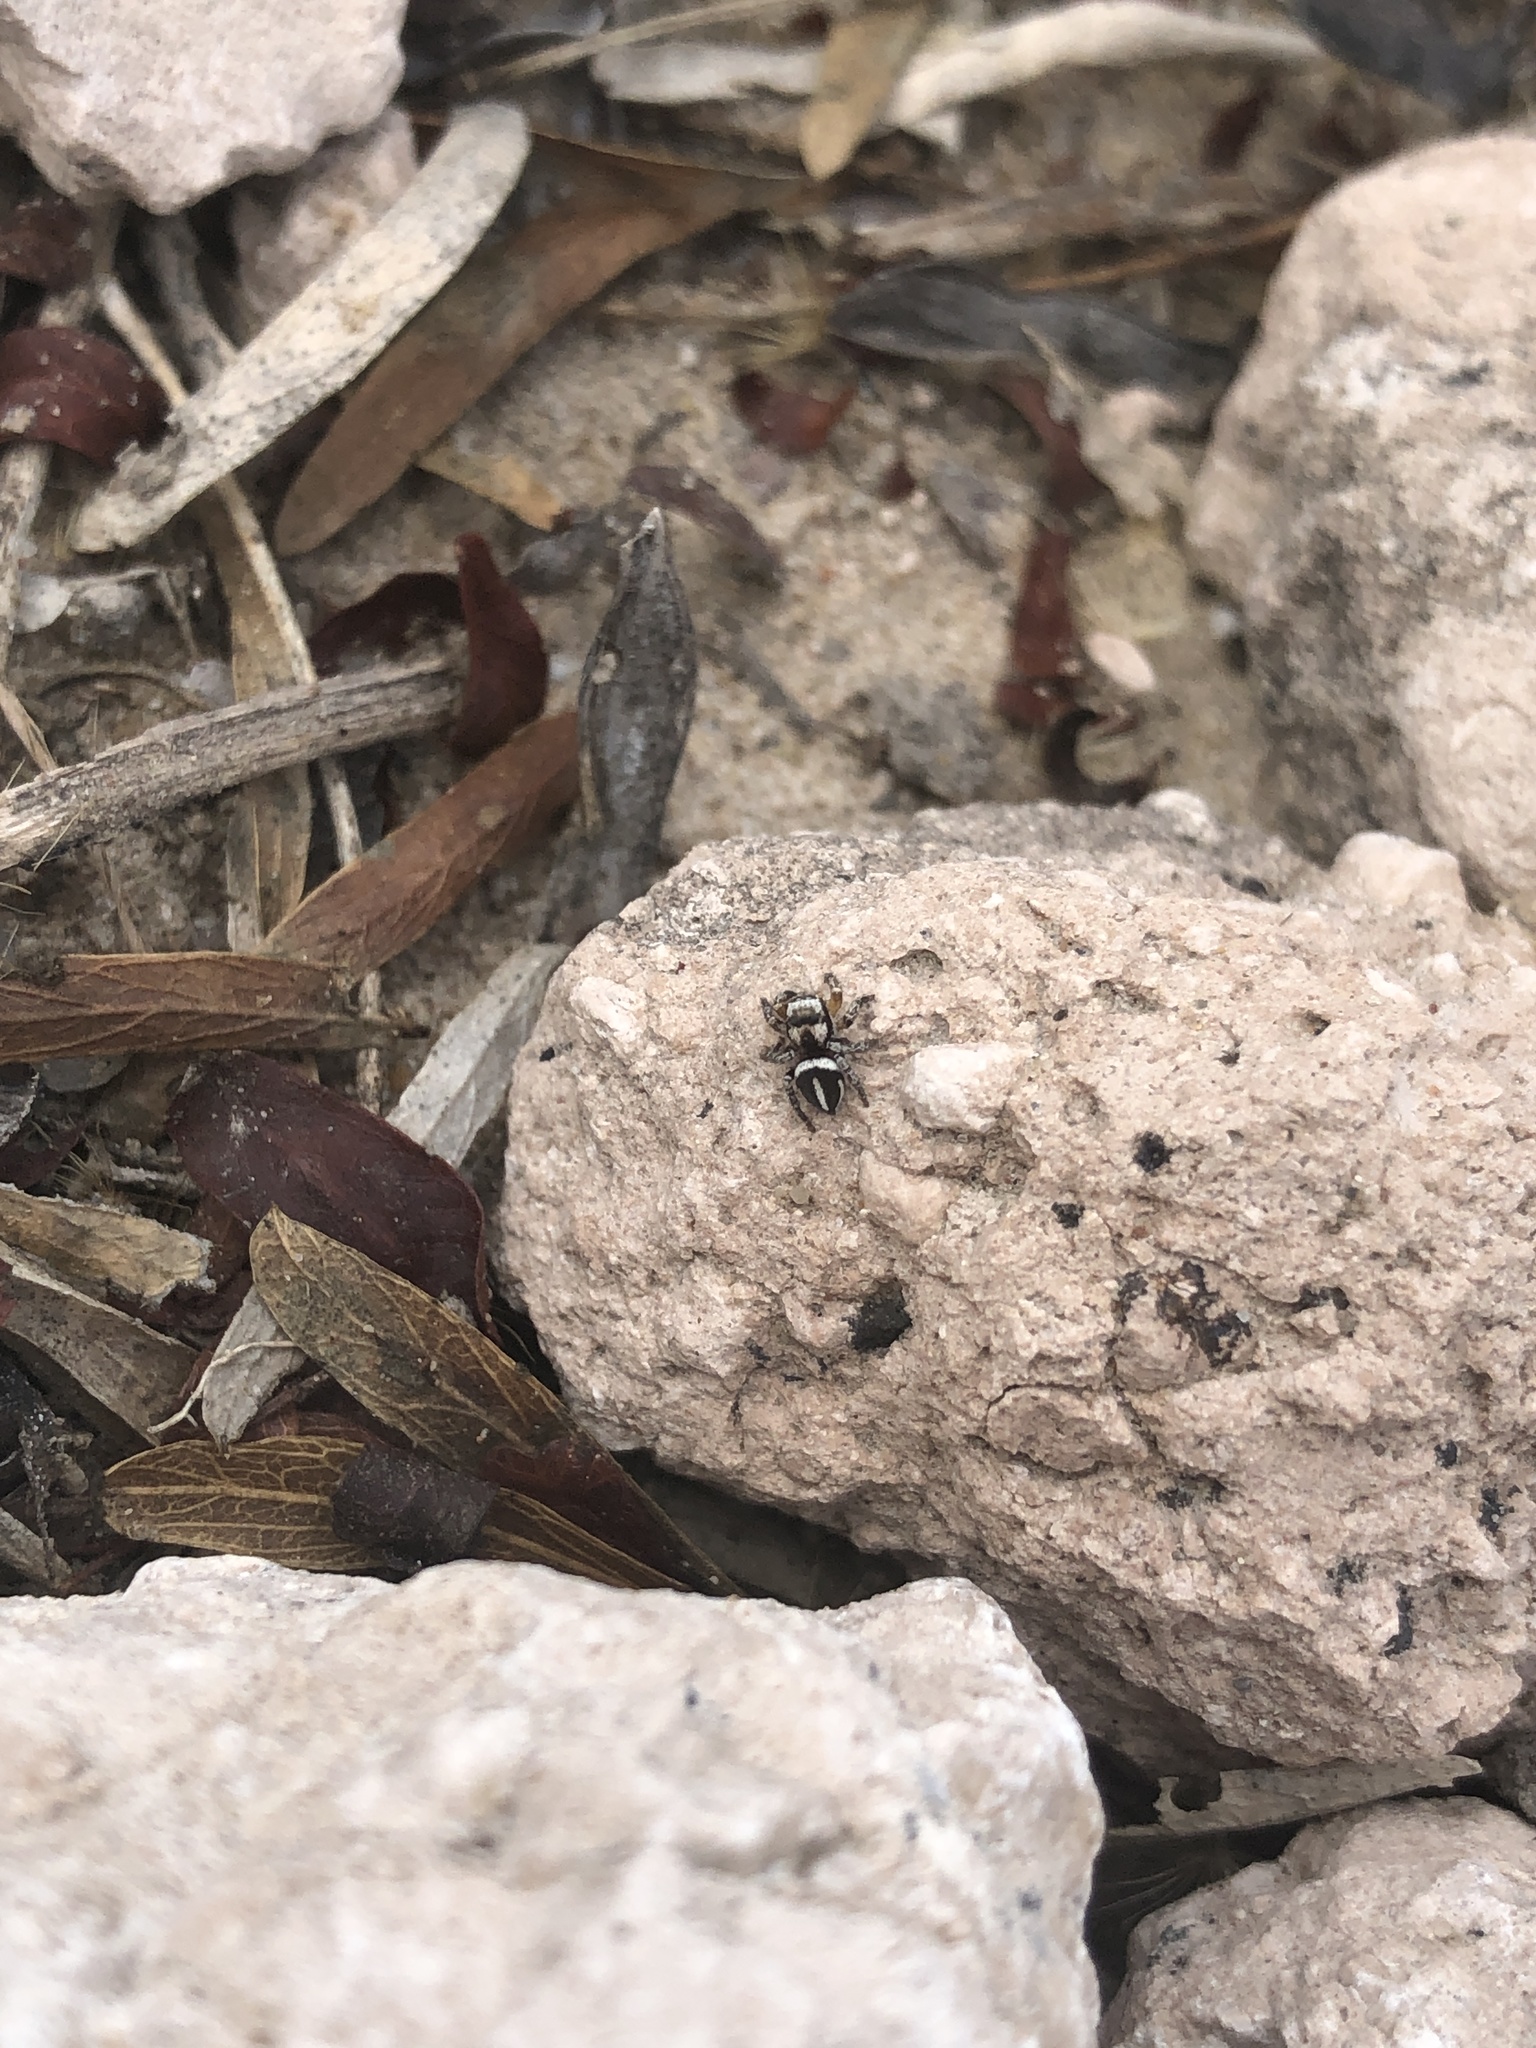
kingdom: Animalia
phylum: Arthropoda
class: Arachnida
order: Araneae
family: Salticidae
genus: Habronattus
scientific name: Habronattus delectus
